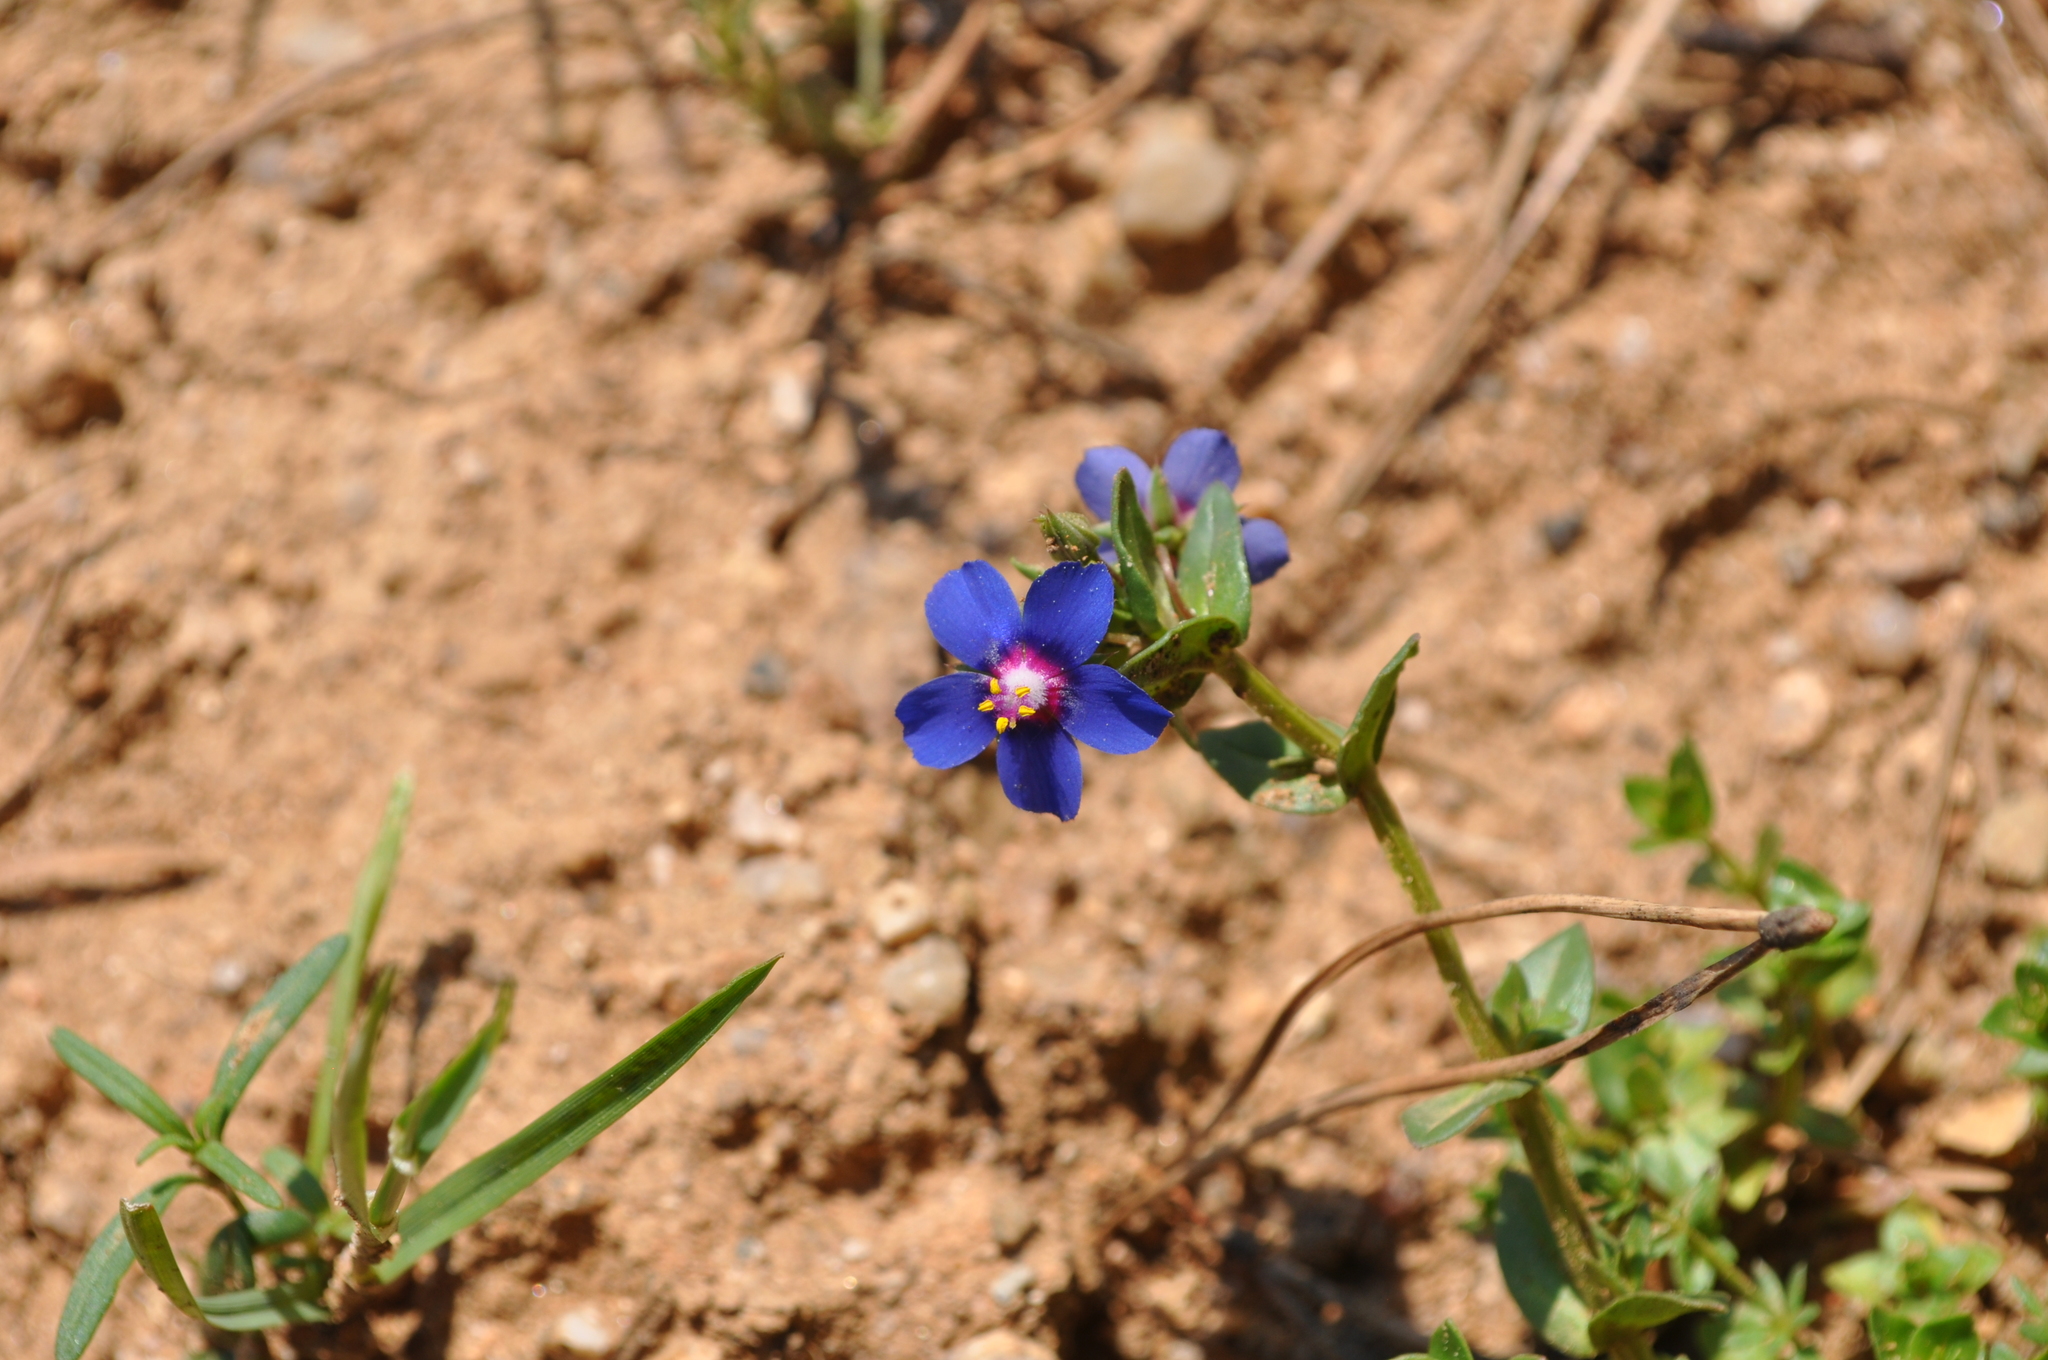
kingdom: Plantae
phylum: Tracheophyta
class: Magnoliopsida
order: Ericales
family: Primulaceae
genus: Lysimachia
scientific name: Lysimachia loeflingii
